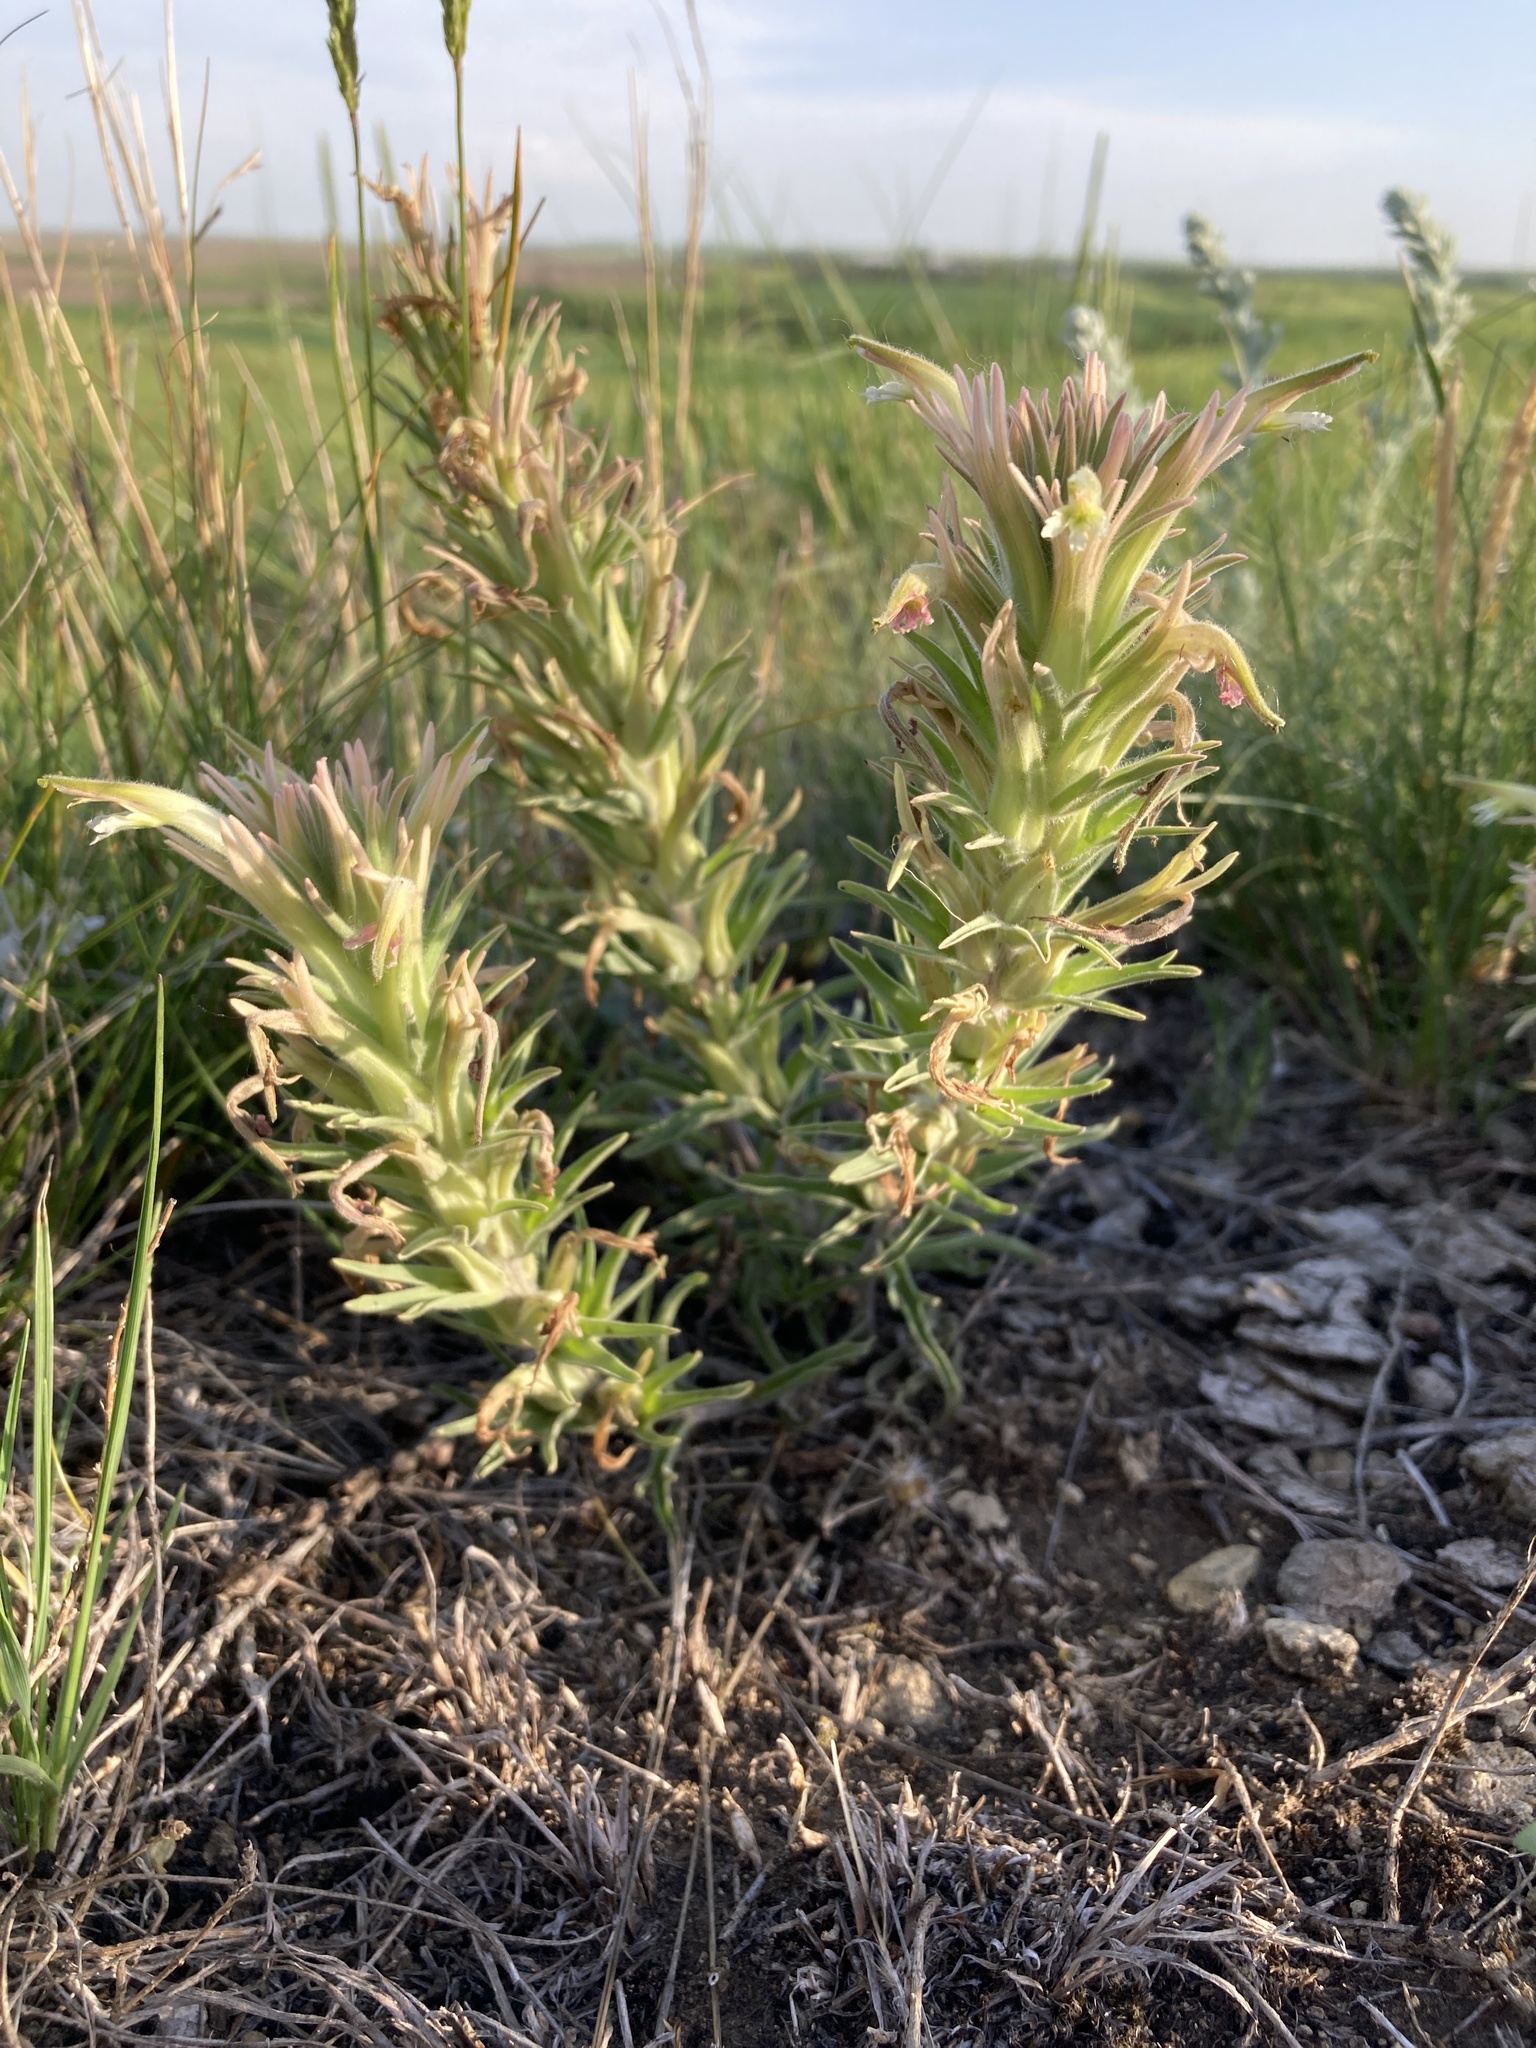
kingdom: Plantae
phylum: Tracheophyta
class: Magnoliopsida
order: Lamiales
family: Orobanchaceae
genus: Castilleja
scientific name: Castilleja sessiliflora
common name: Downy paintbrush
